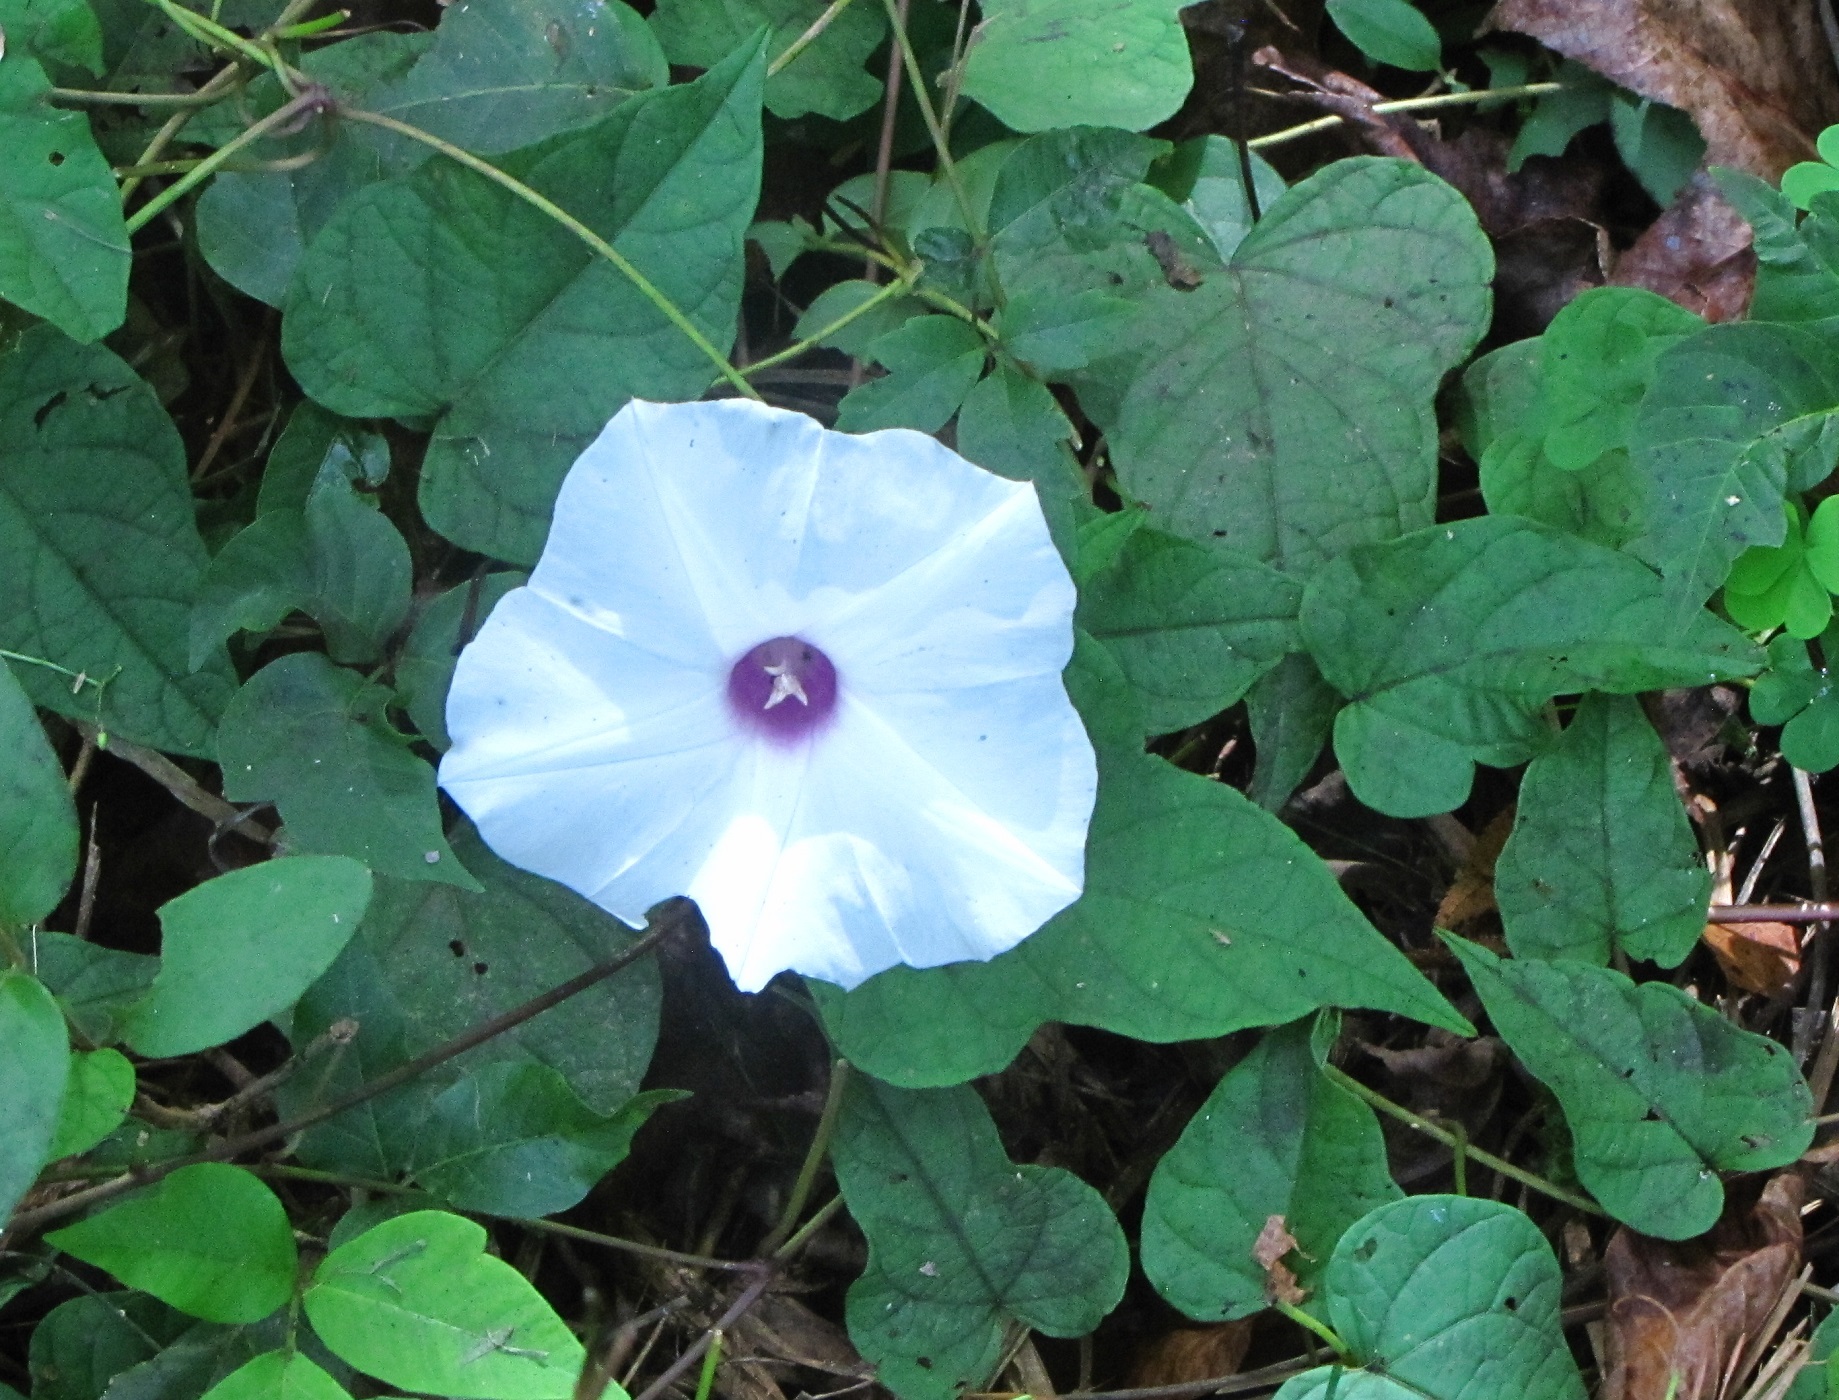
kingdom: Plantae
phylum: Tracheophyta
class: Magnoliopsida
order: Solanales
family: Convolvulaceae
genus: Ipomoea
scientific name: Ipomoea pandurata
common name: Man-of-the-earth
